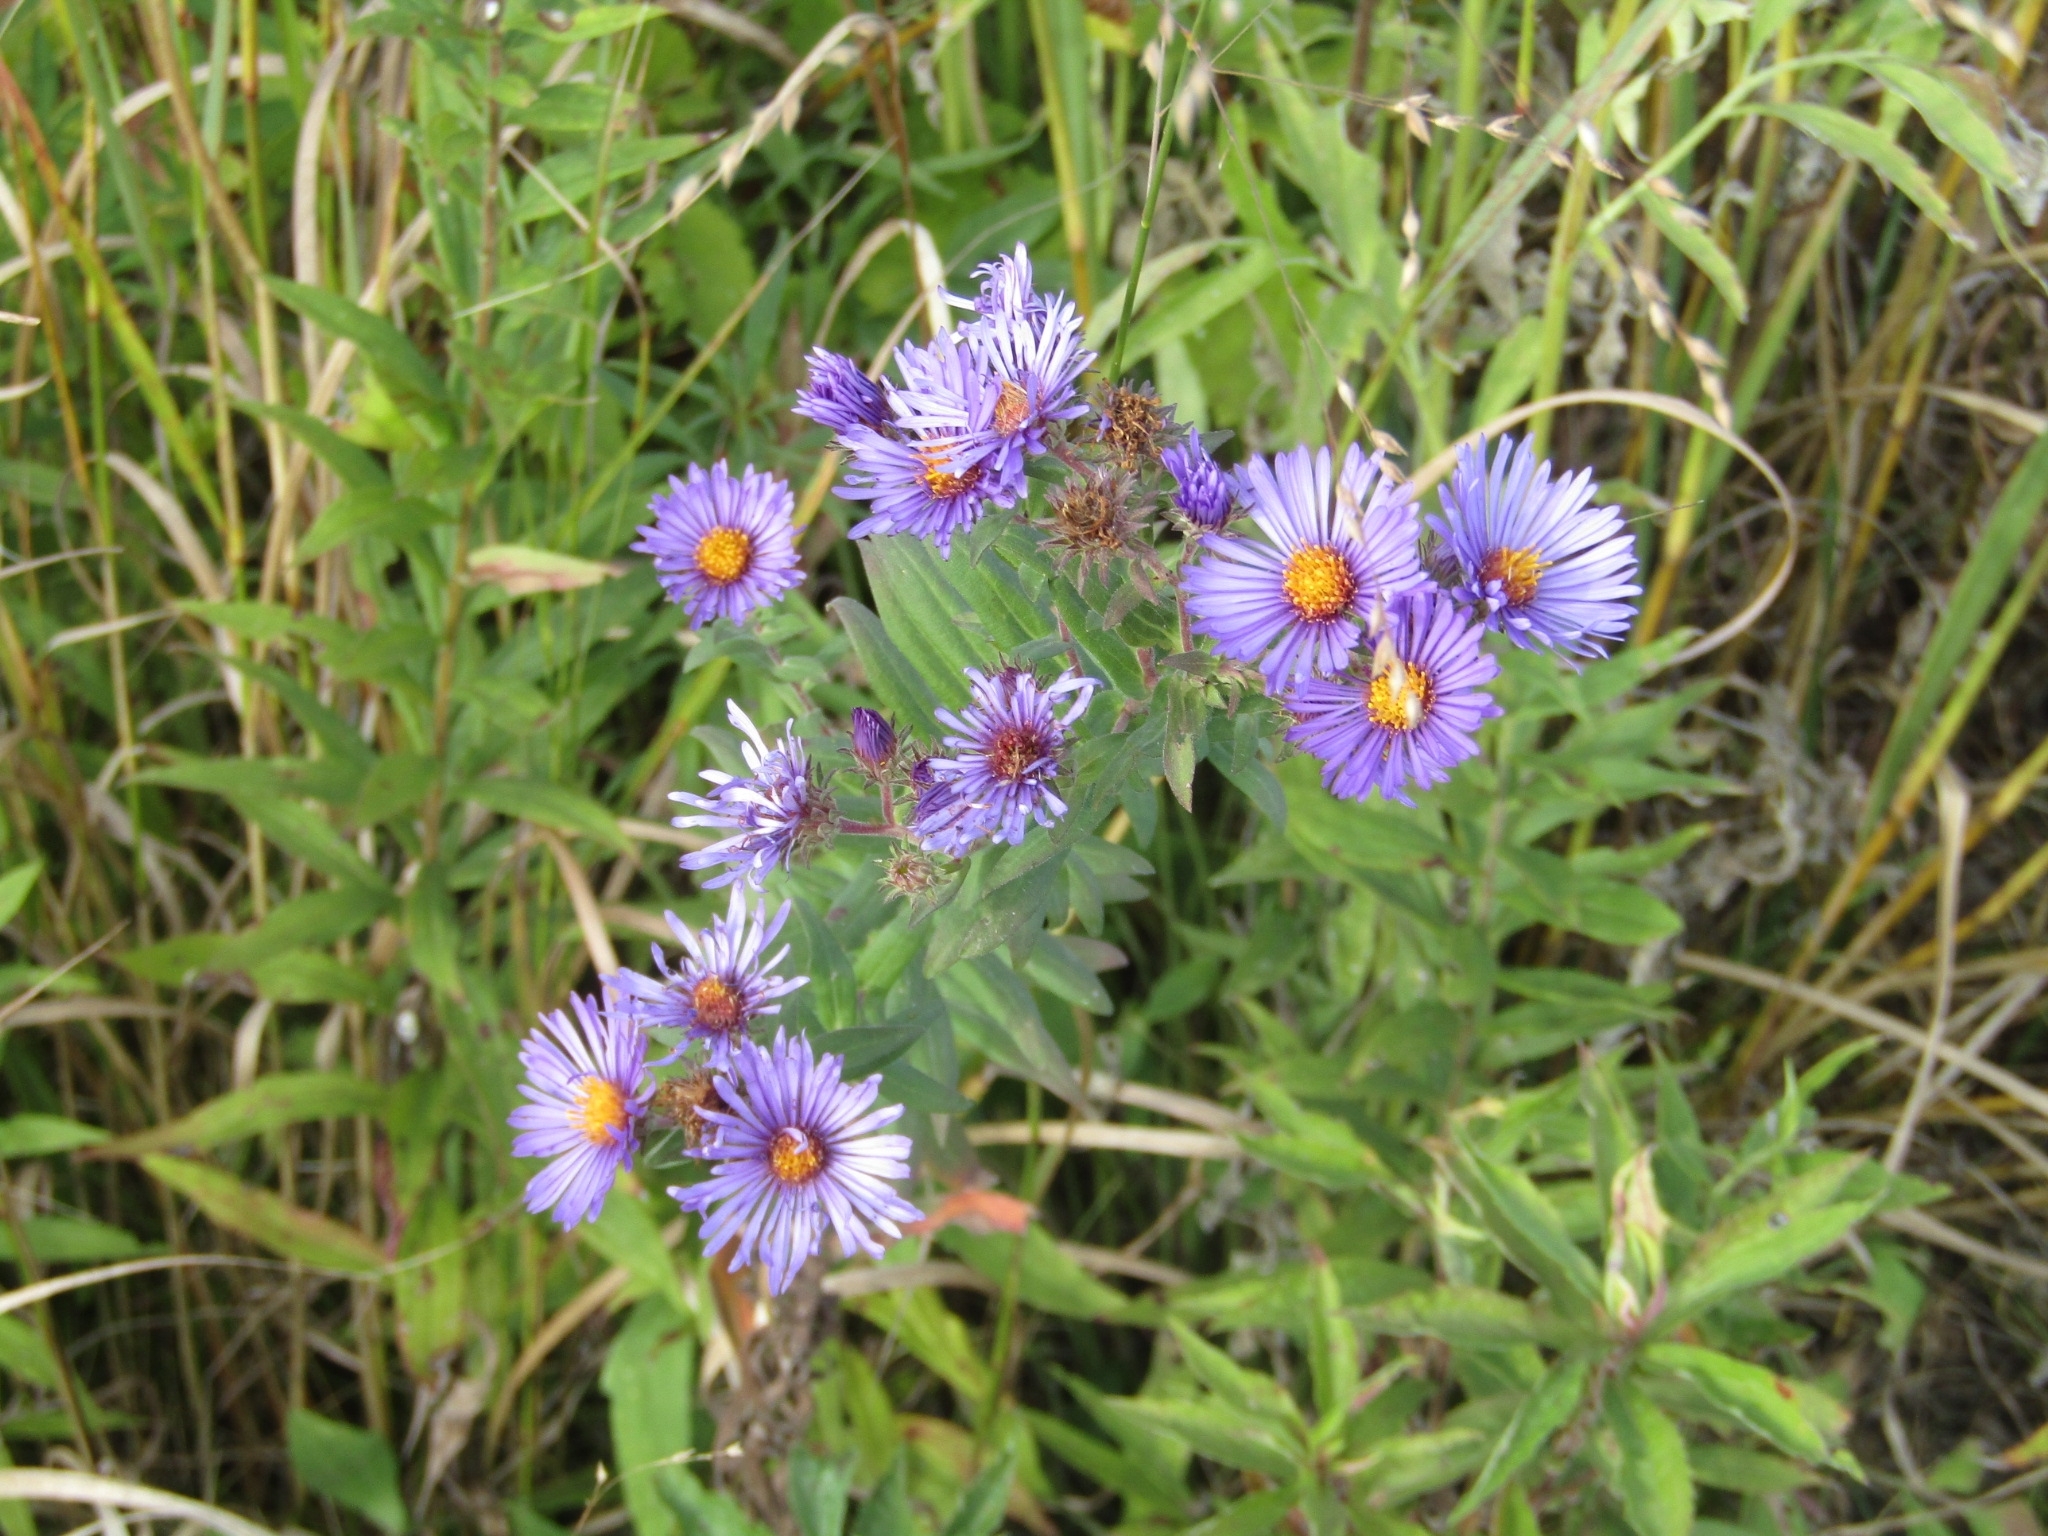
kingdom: Plantae
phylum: Tracheophyta
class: Magnoliopsida
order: Asterales
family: Asteraceae
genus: Symphyotrichum
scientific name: Symphyotrichum novae-angliae
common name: Michaelmas daisy
